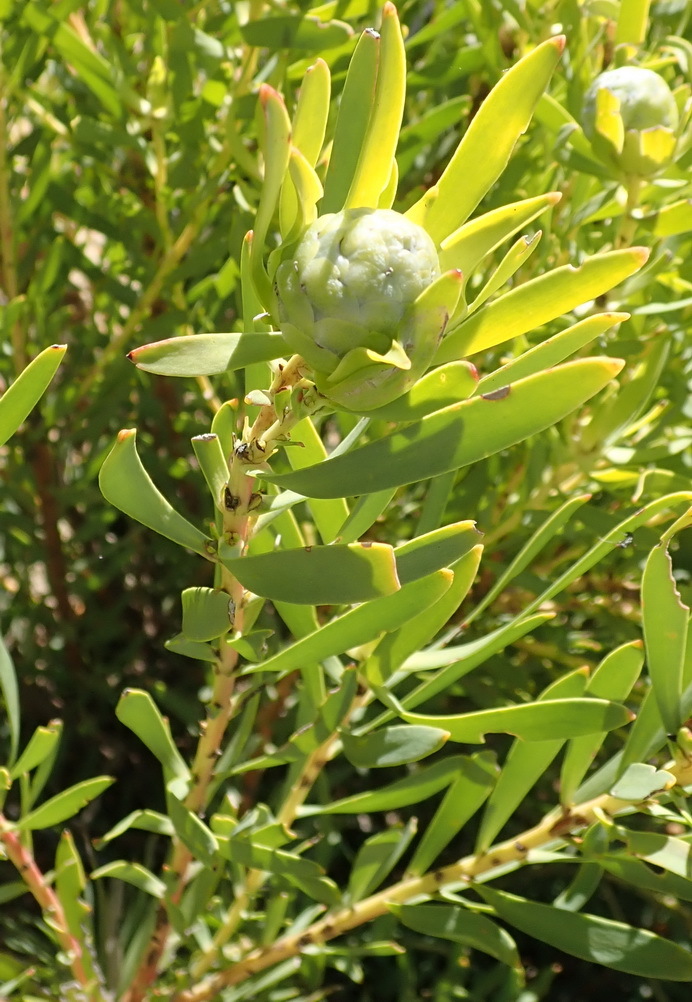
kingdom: Plantae
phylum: Tracheophyta
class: Magnoliopsida
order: Proteales
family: Proteaceae
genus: Leucadendron
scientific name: Leucadendron salignum
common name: Common sunshine conebush
